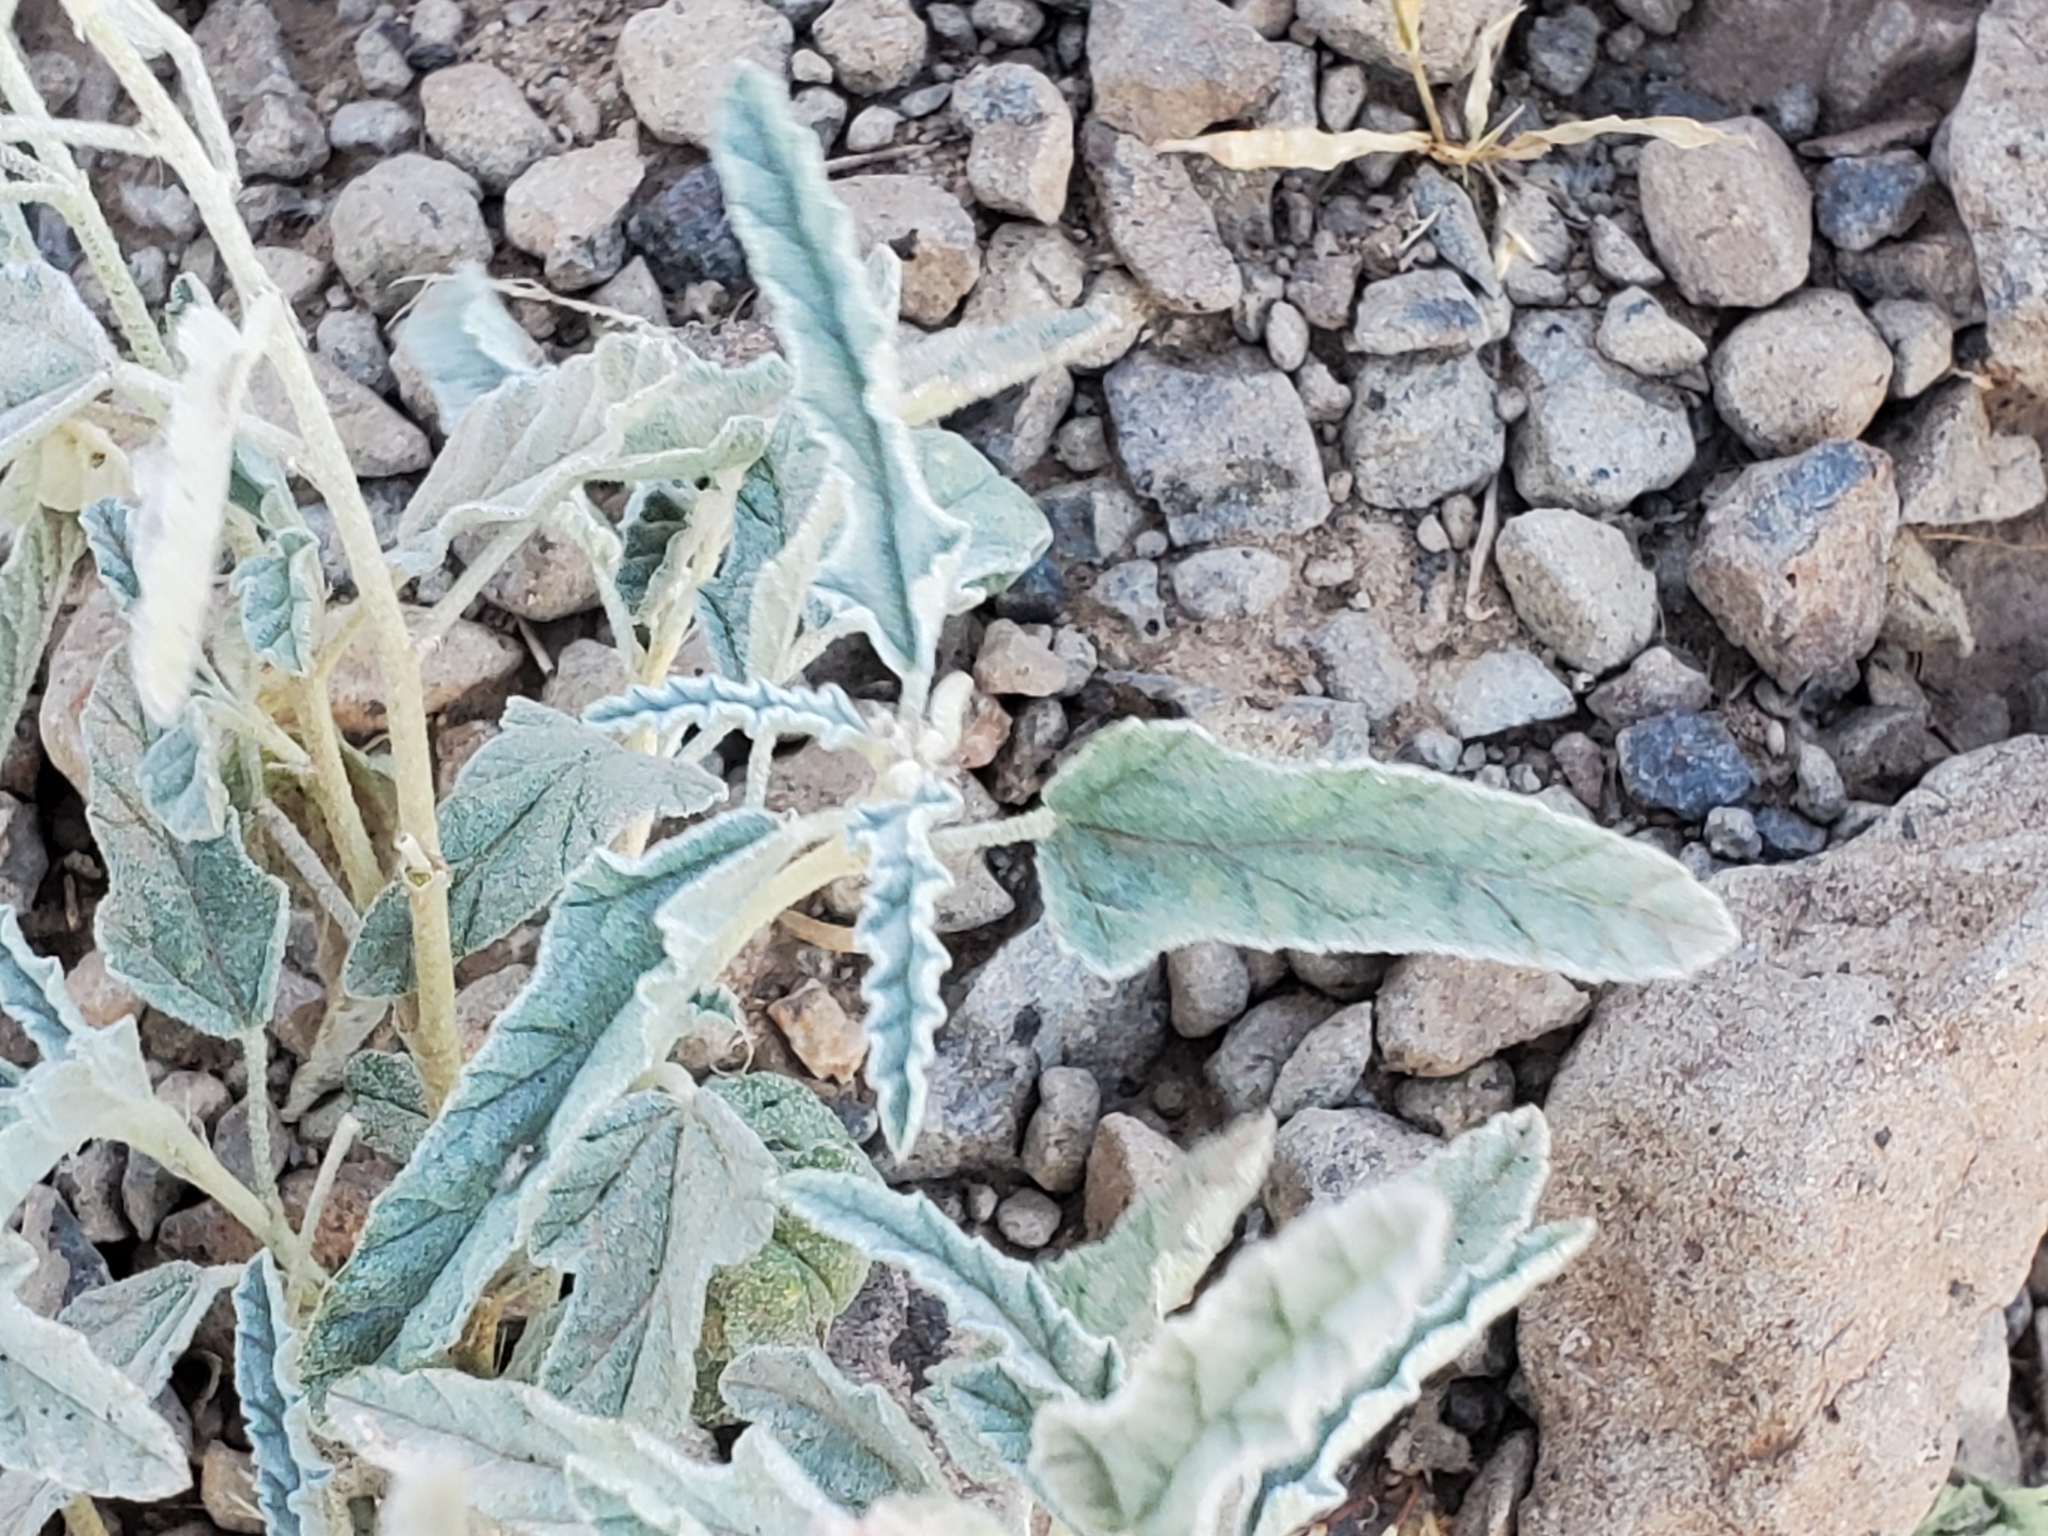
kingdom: Plantae
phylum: Tracheophyta
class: Magnoliopsida
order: Malvales
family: Malvaceae
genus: Sphaeralcea
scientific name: Sphaeralcea hastulata
